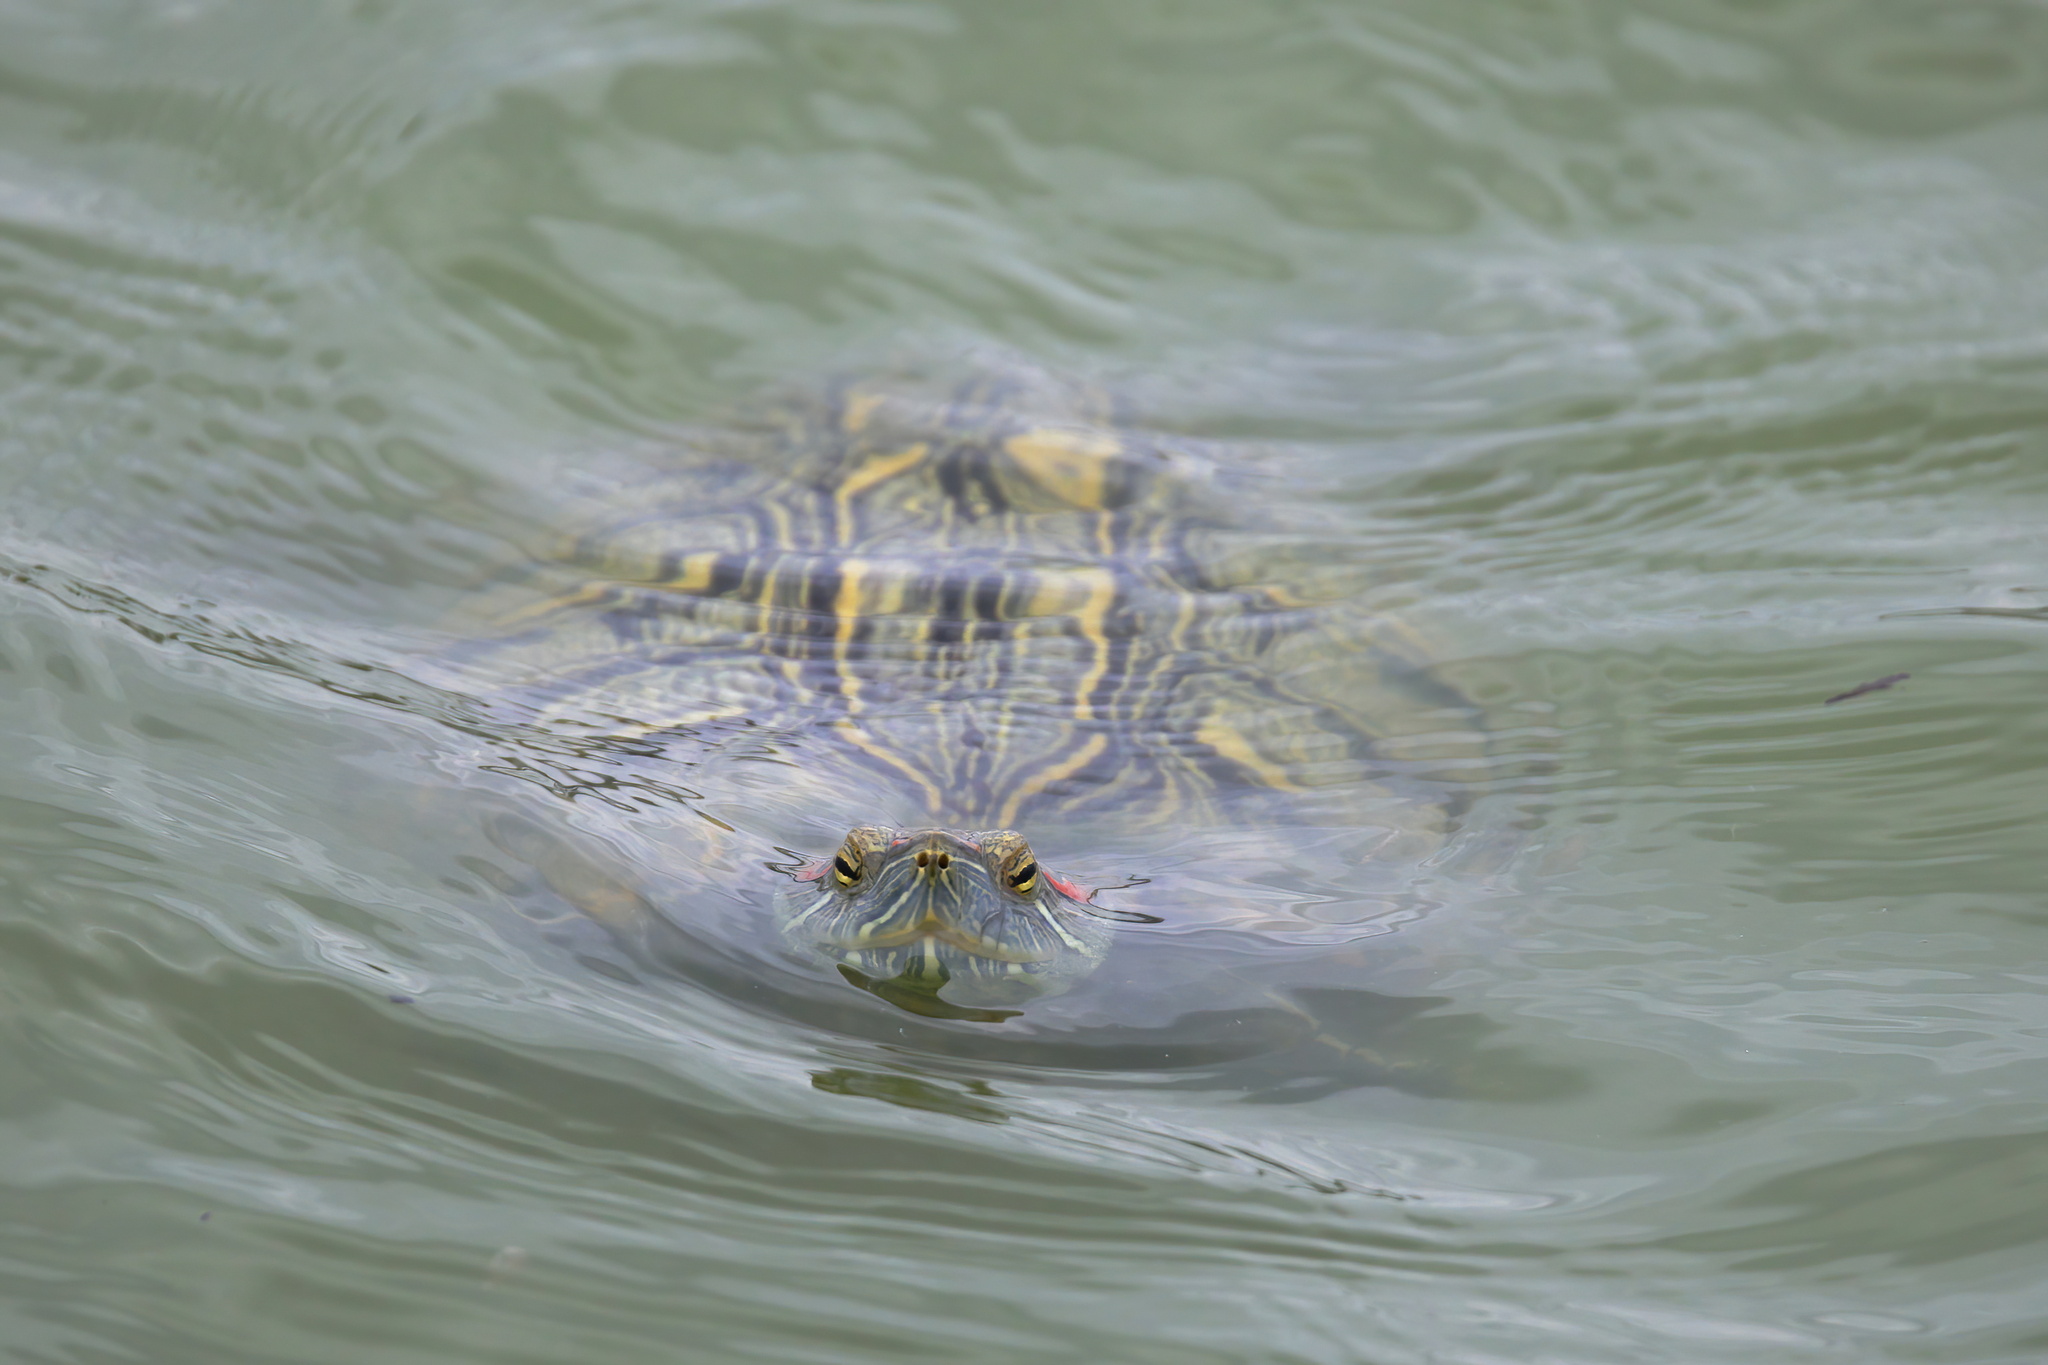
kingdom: Animalia
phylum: Chordata
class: Testudines
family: Emydidae
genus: Trachemys
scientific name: Trachemys scripta
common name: Slider
